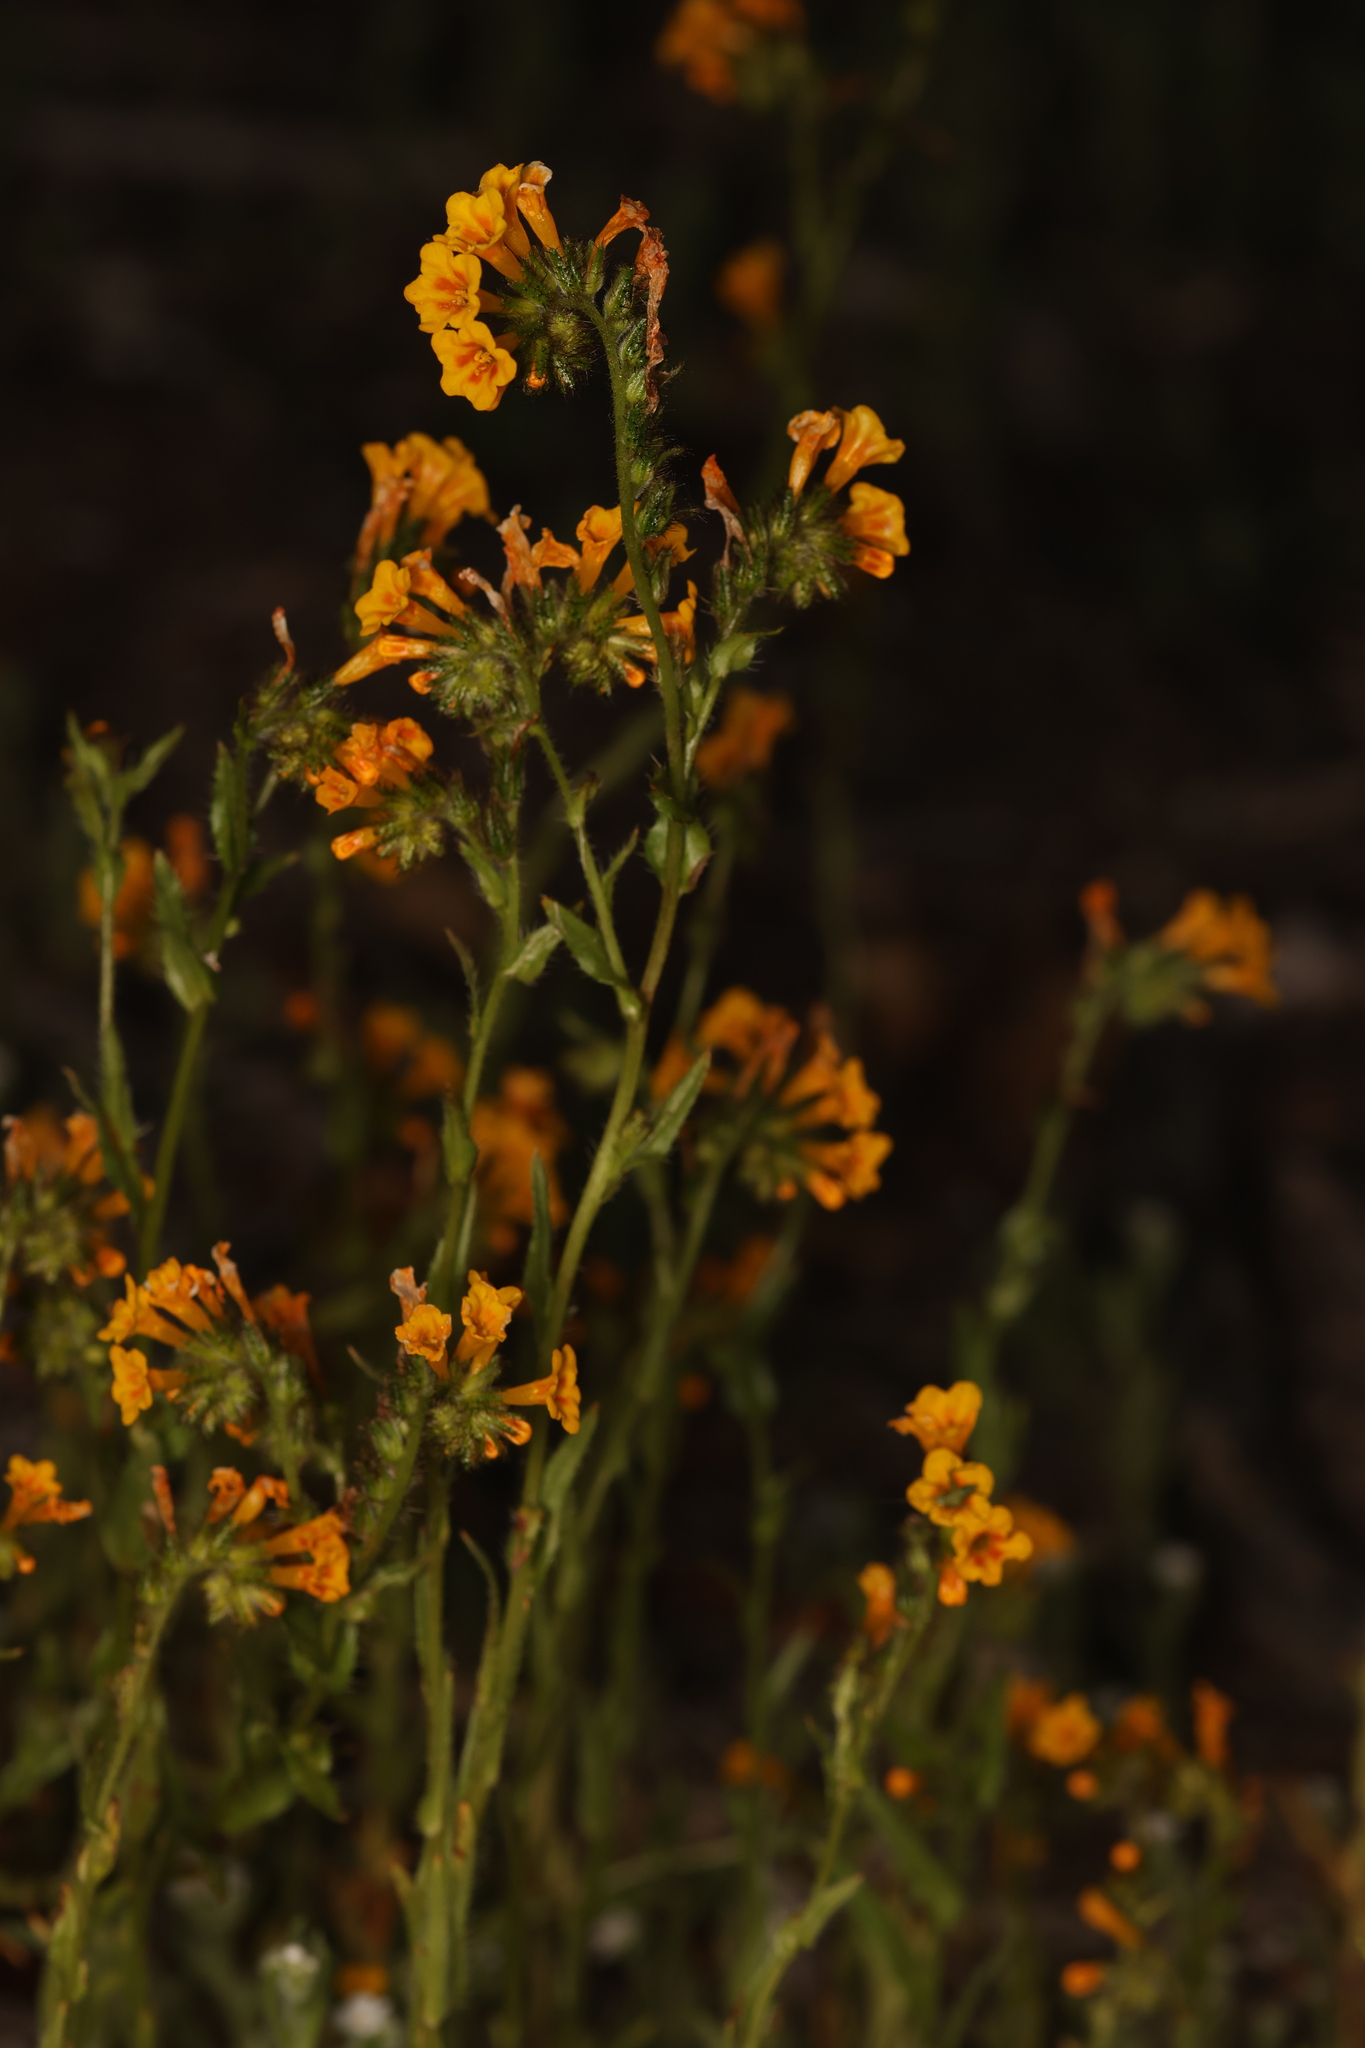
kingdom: Plantae
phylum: Tracheophyta
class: Magnoliopsida
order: Boraginales
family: Boraginaceae
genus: Amsinckia
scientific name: Amsinckia menziesii
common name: Menzies' fiddleneck
